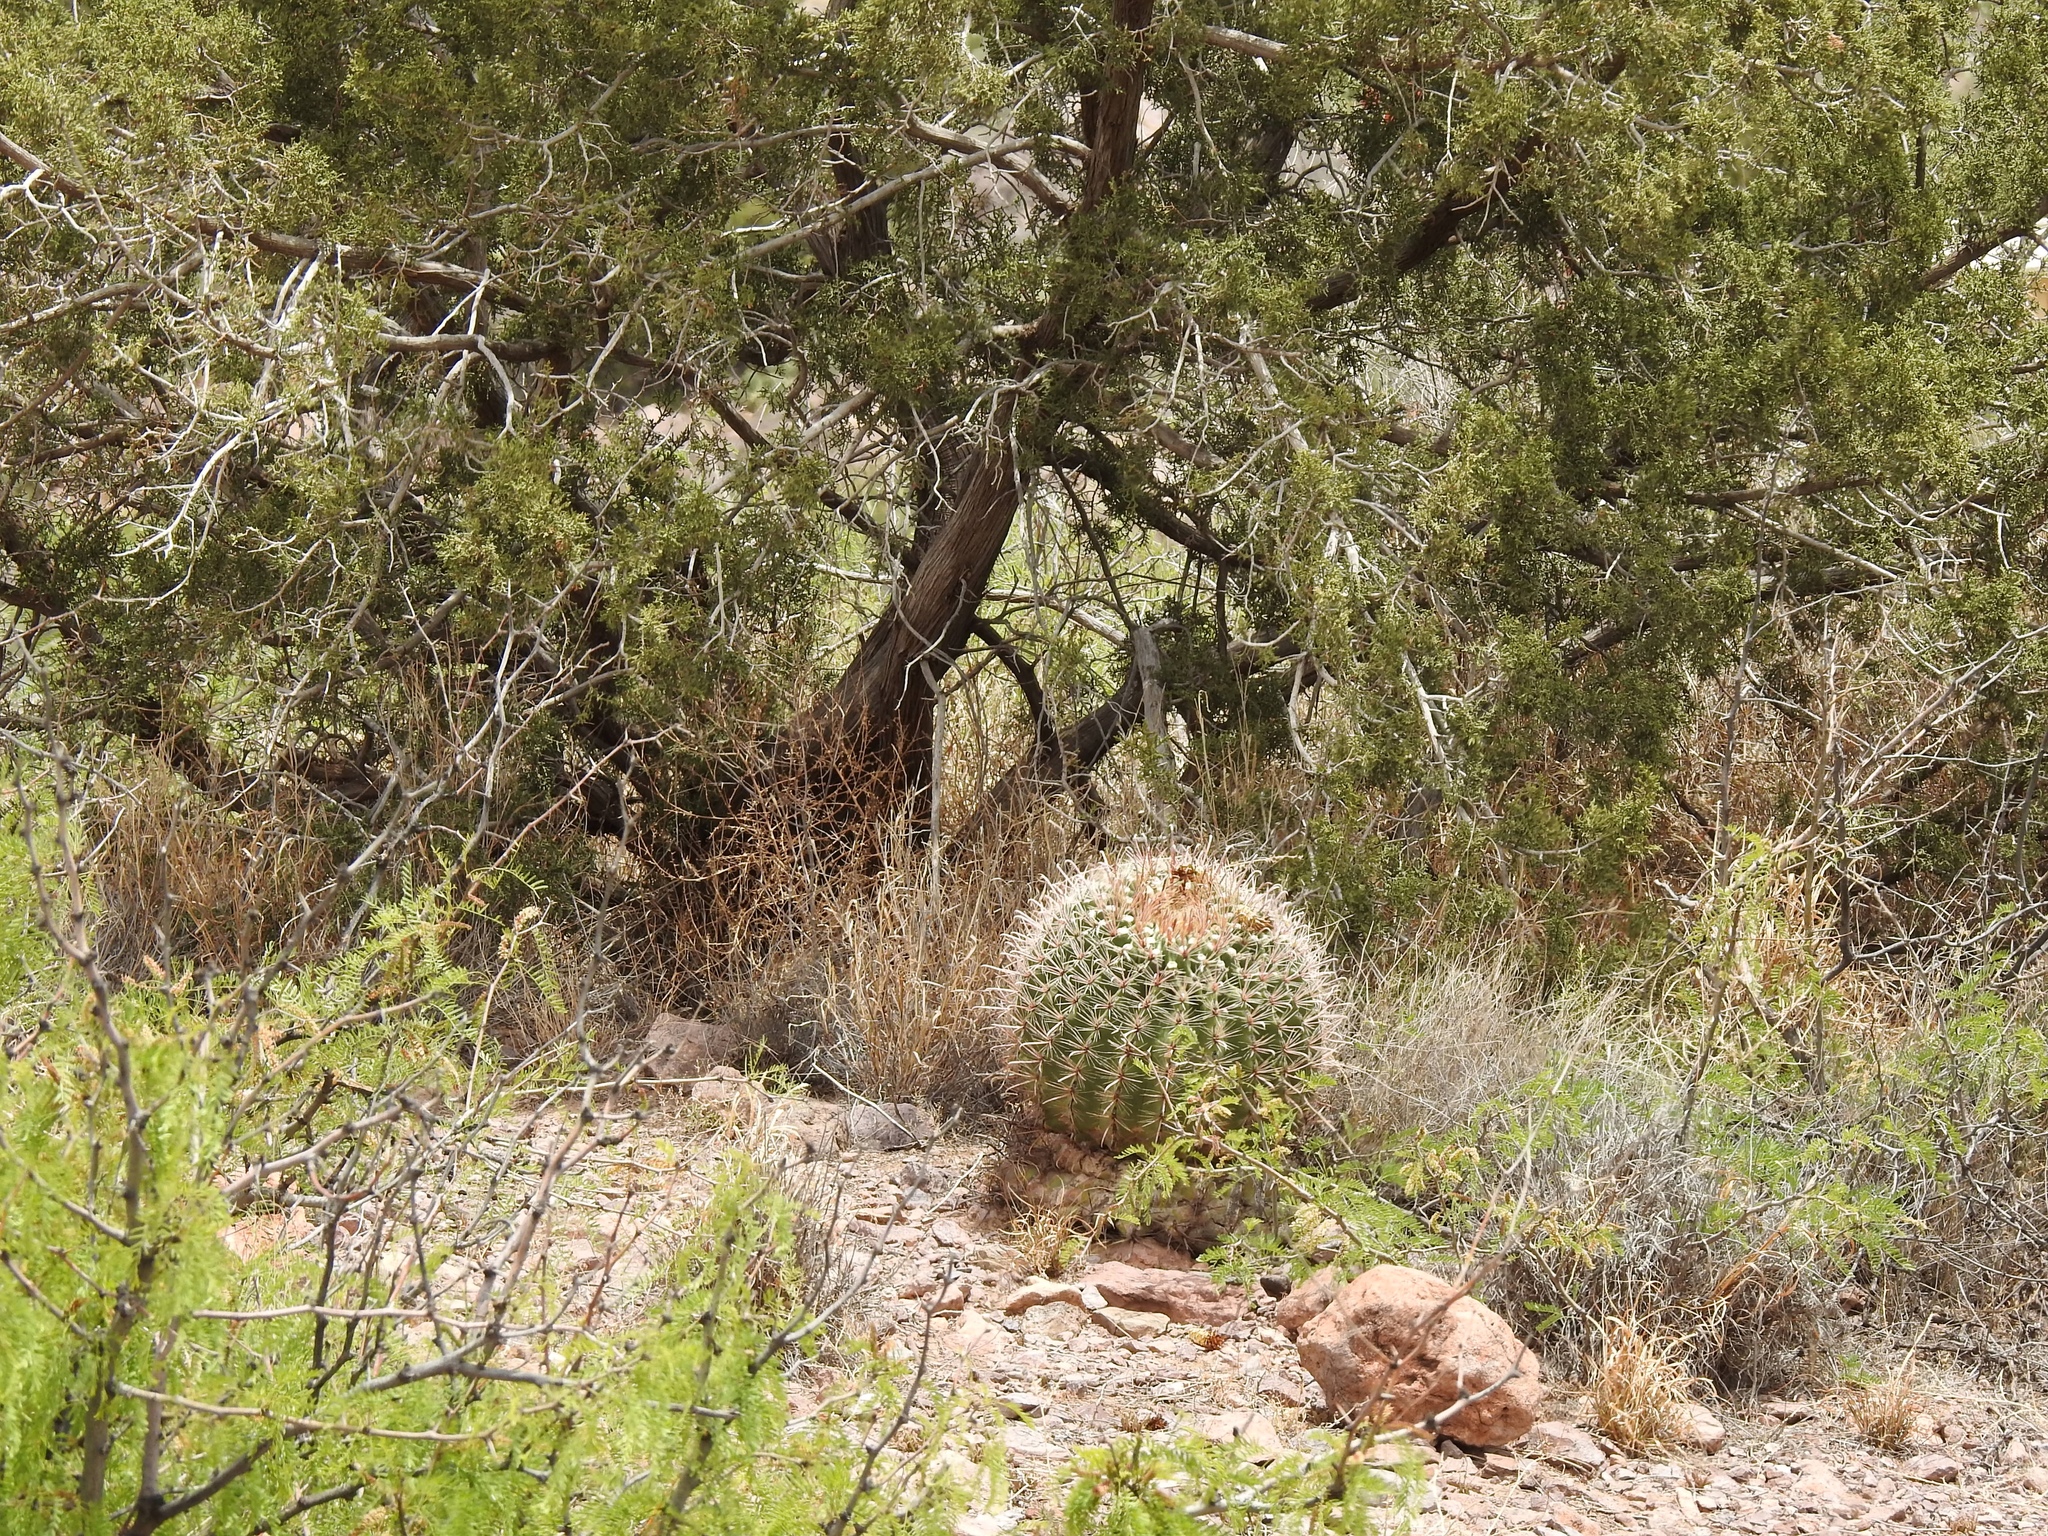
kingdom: Plantae
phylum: Tracheophyta
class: Magnoliopsida
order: Caryophyllales
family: Cactaceae
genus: Ferocactus
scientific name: Ferocactus wislizeni
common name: Candy barrel cactus
